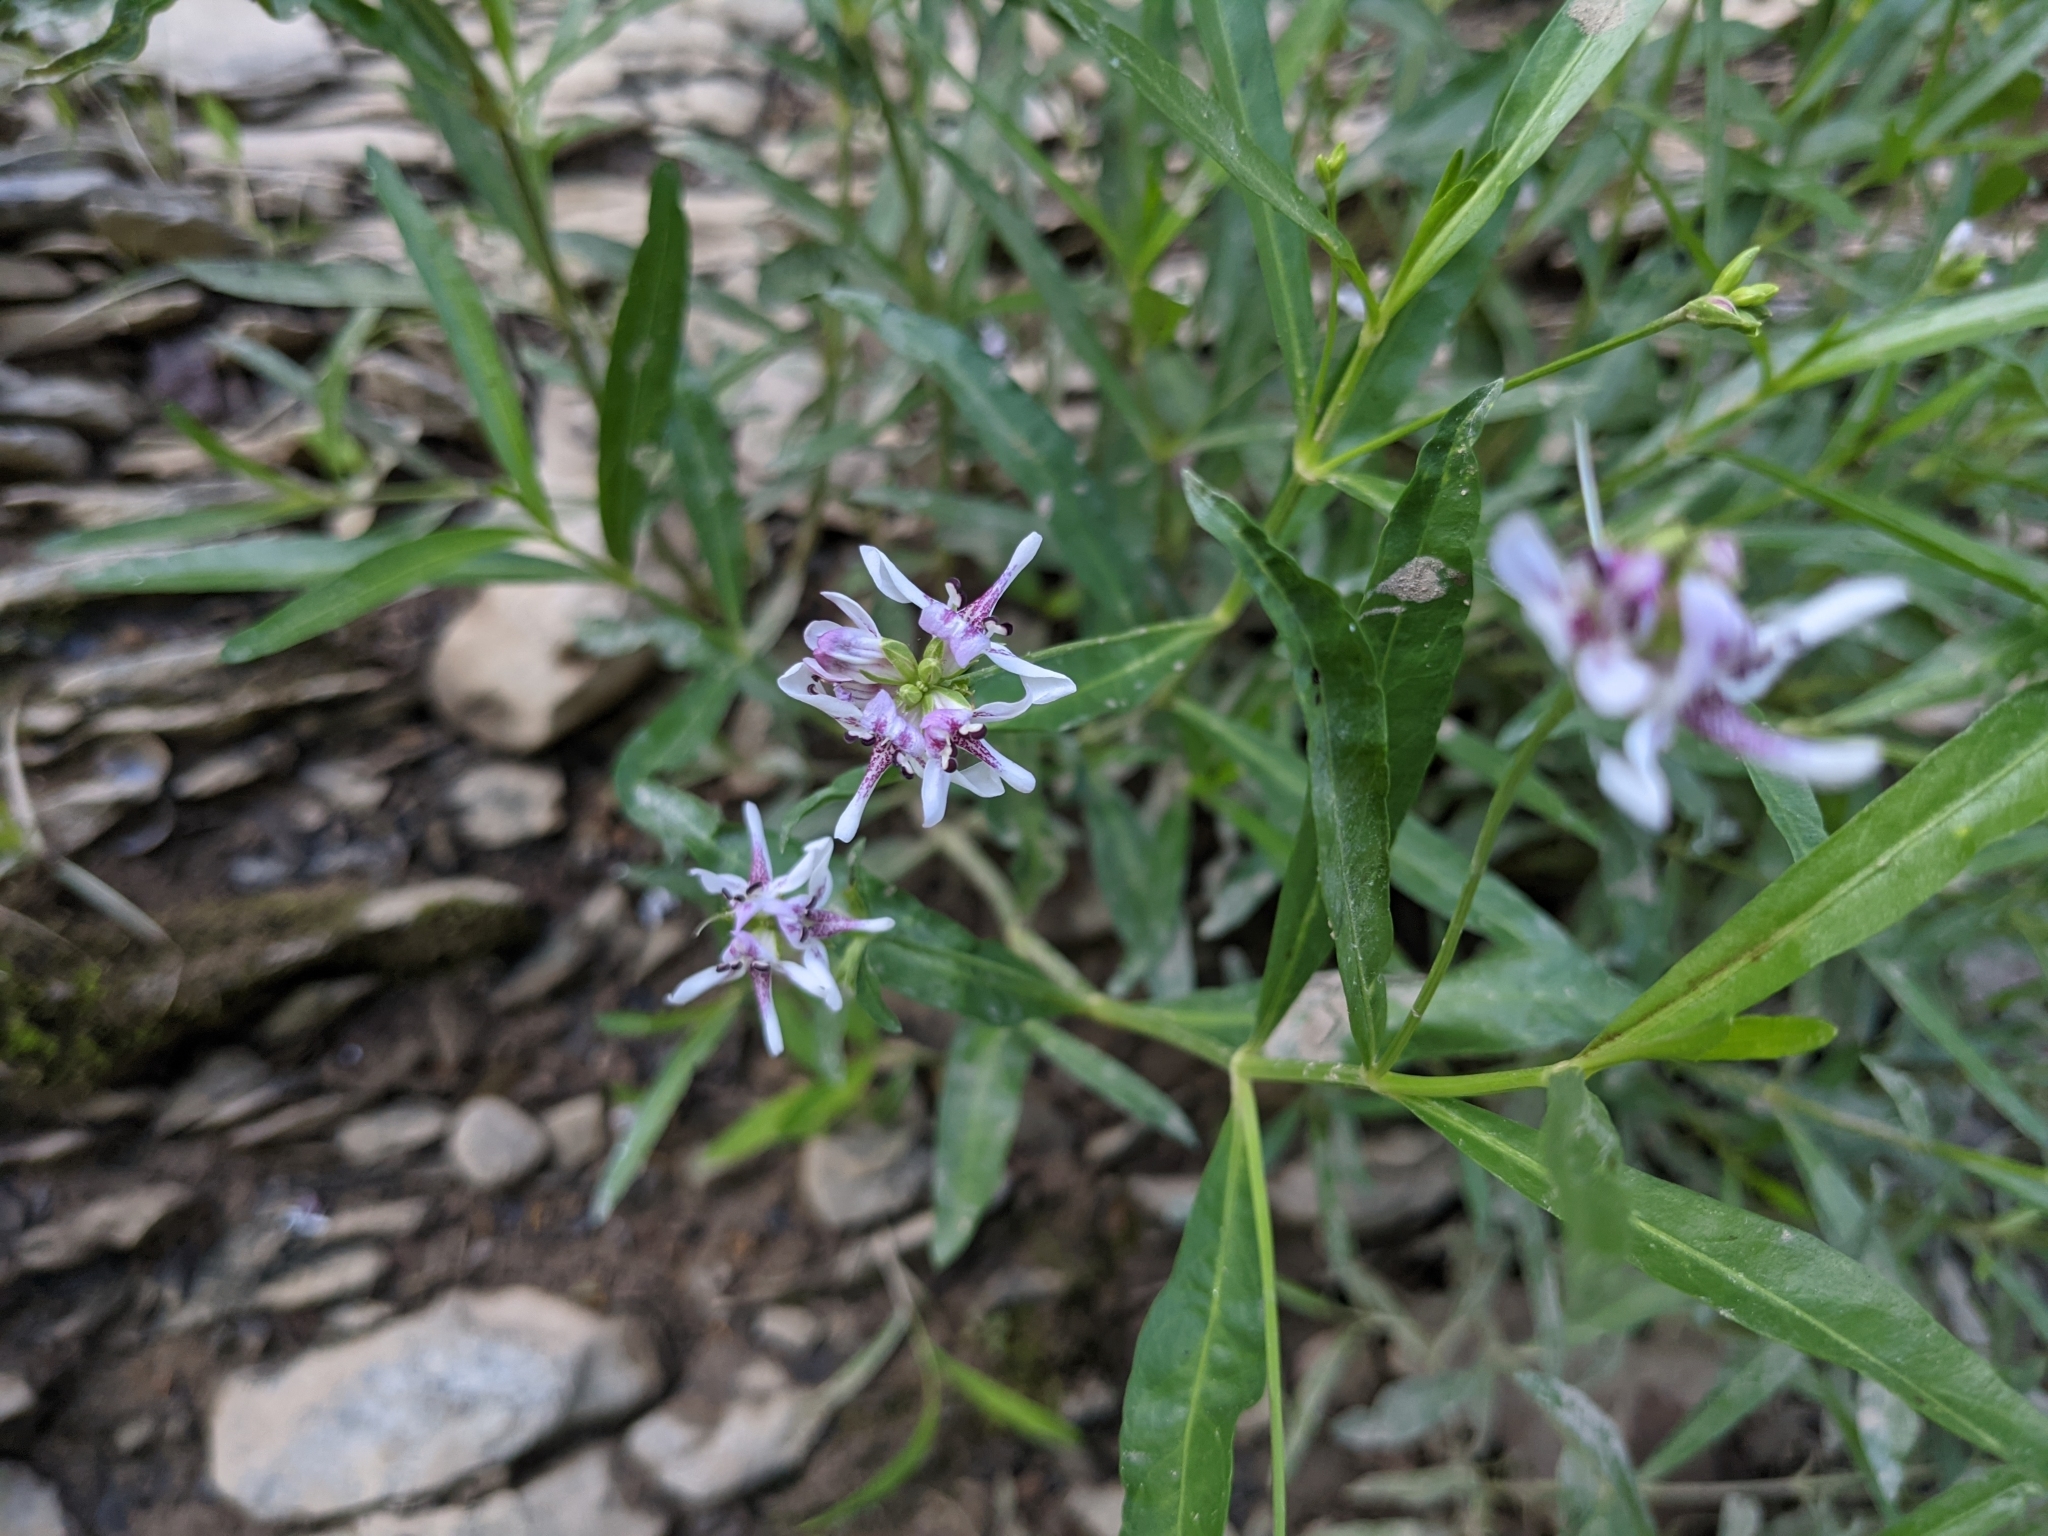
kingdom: Plantae
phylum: Tracheophyta
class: Magnoliopsida
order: Lamiales
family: Acanthaceae
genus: Dianthera
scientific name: Dianthera americana
